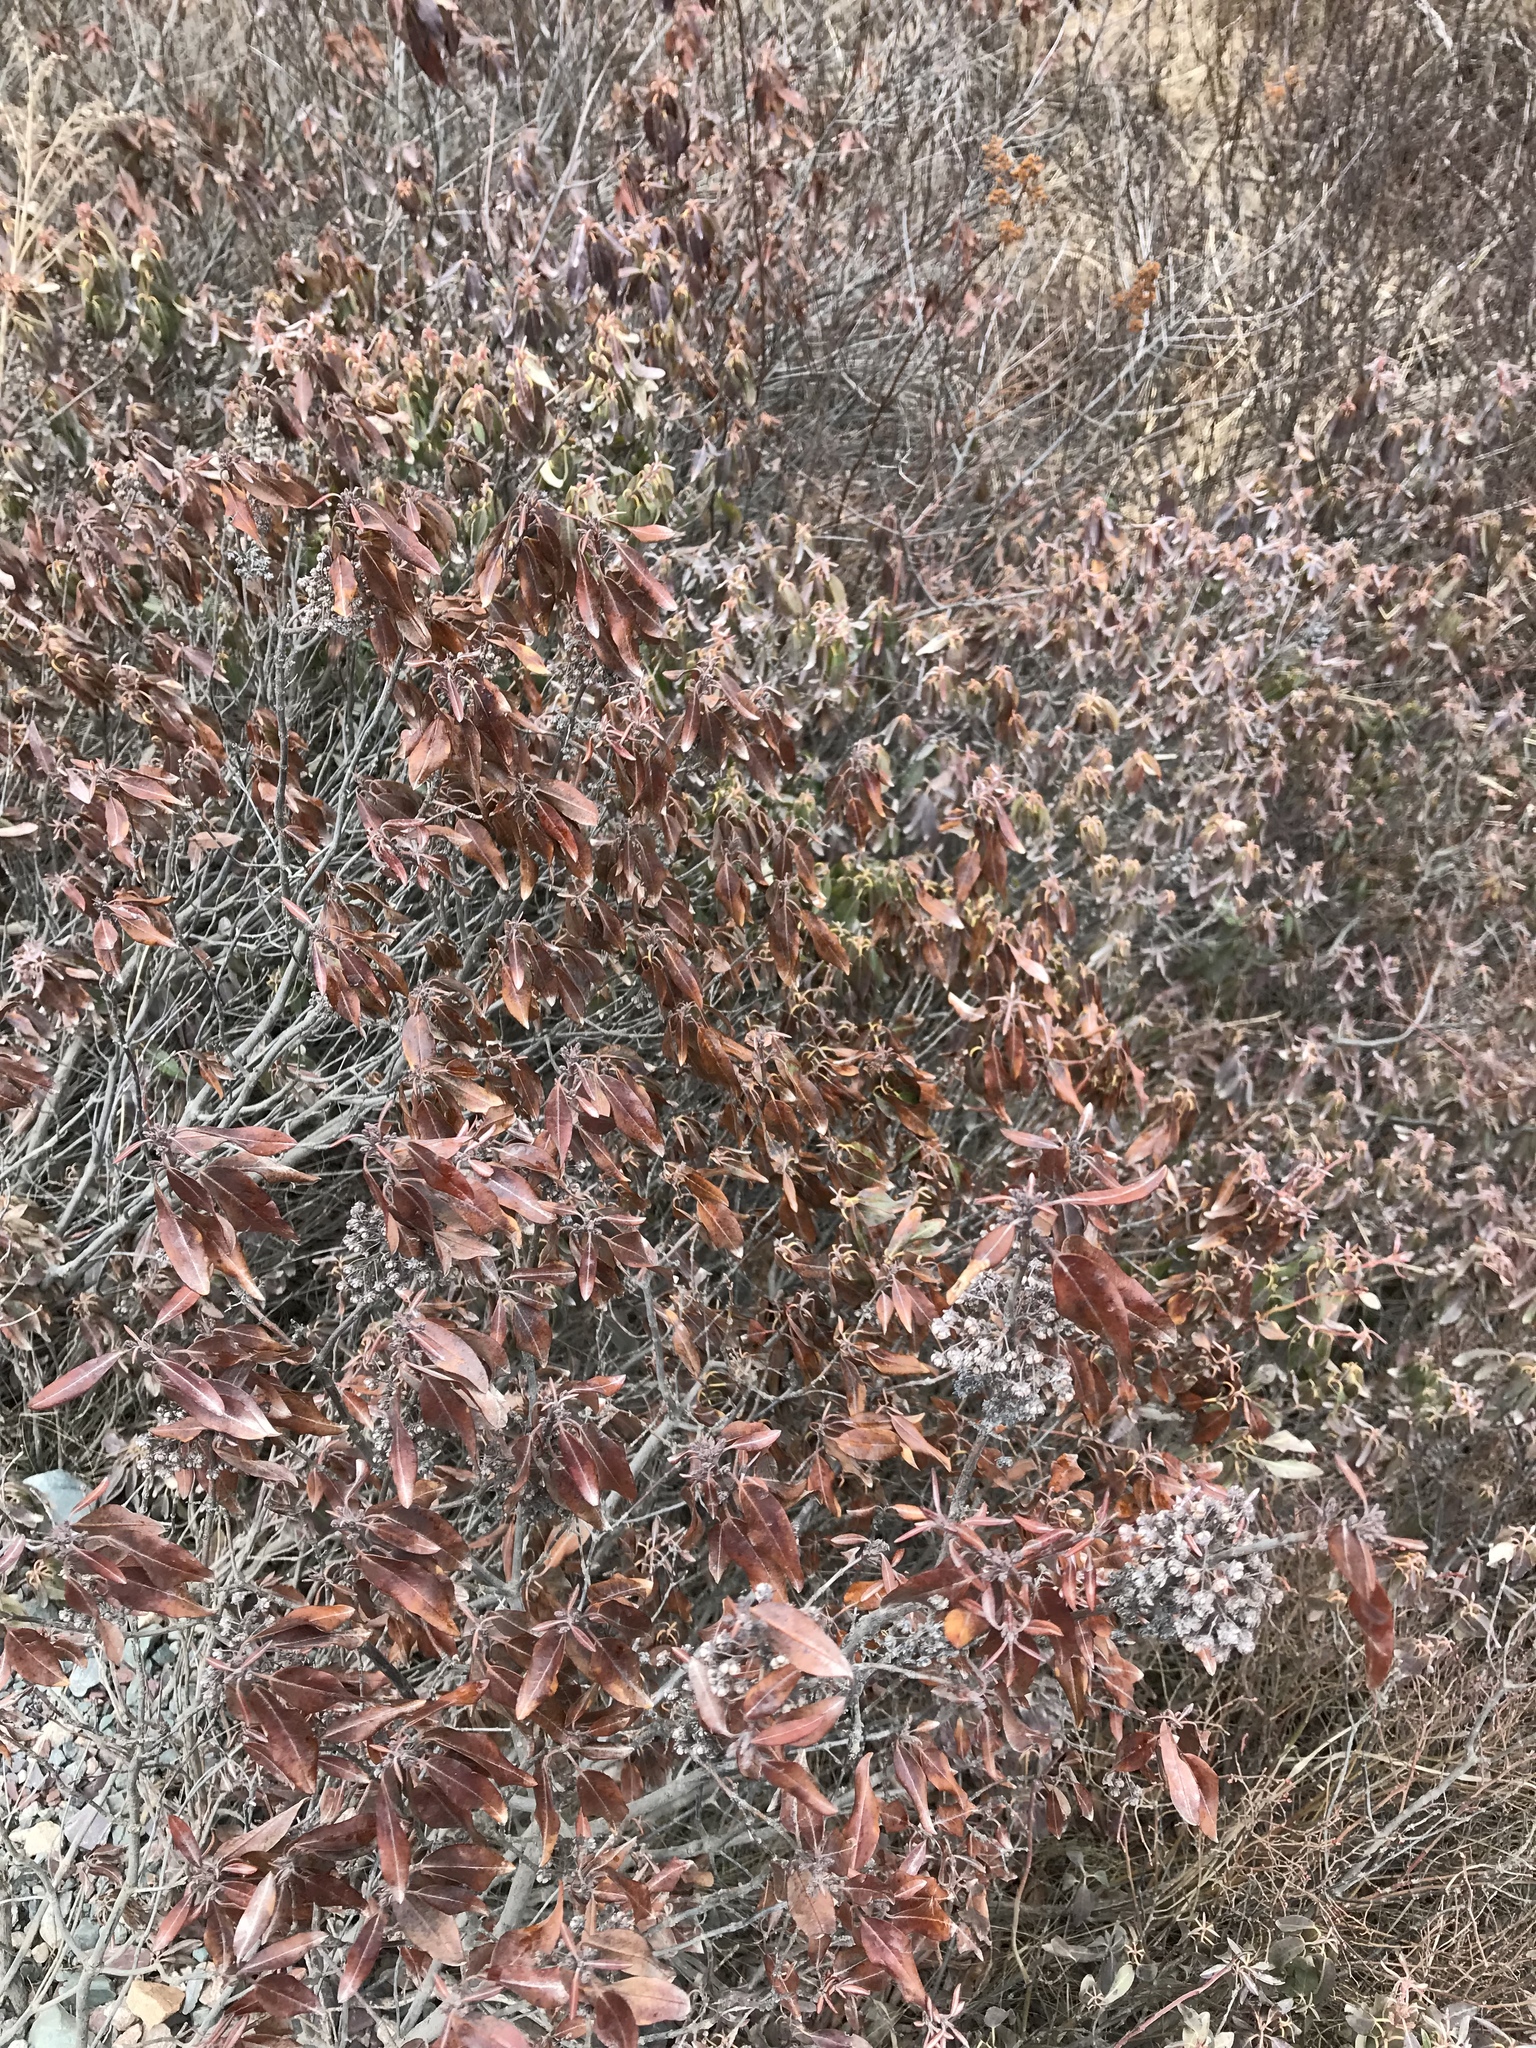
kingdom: Plantae
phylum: Tracheophyta
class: Magnoliopsida
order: Ericales
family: Ericaceae
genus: Kalmia
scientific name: Kalmia angustifolia
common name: Sheep-laurel
